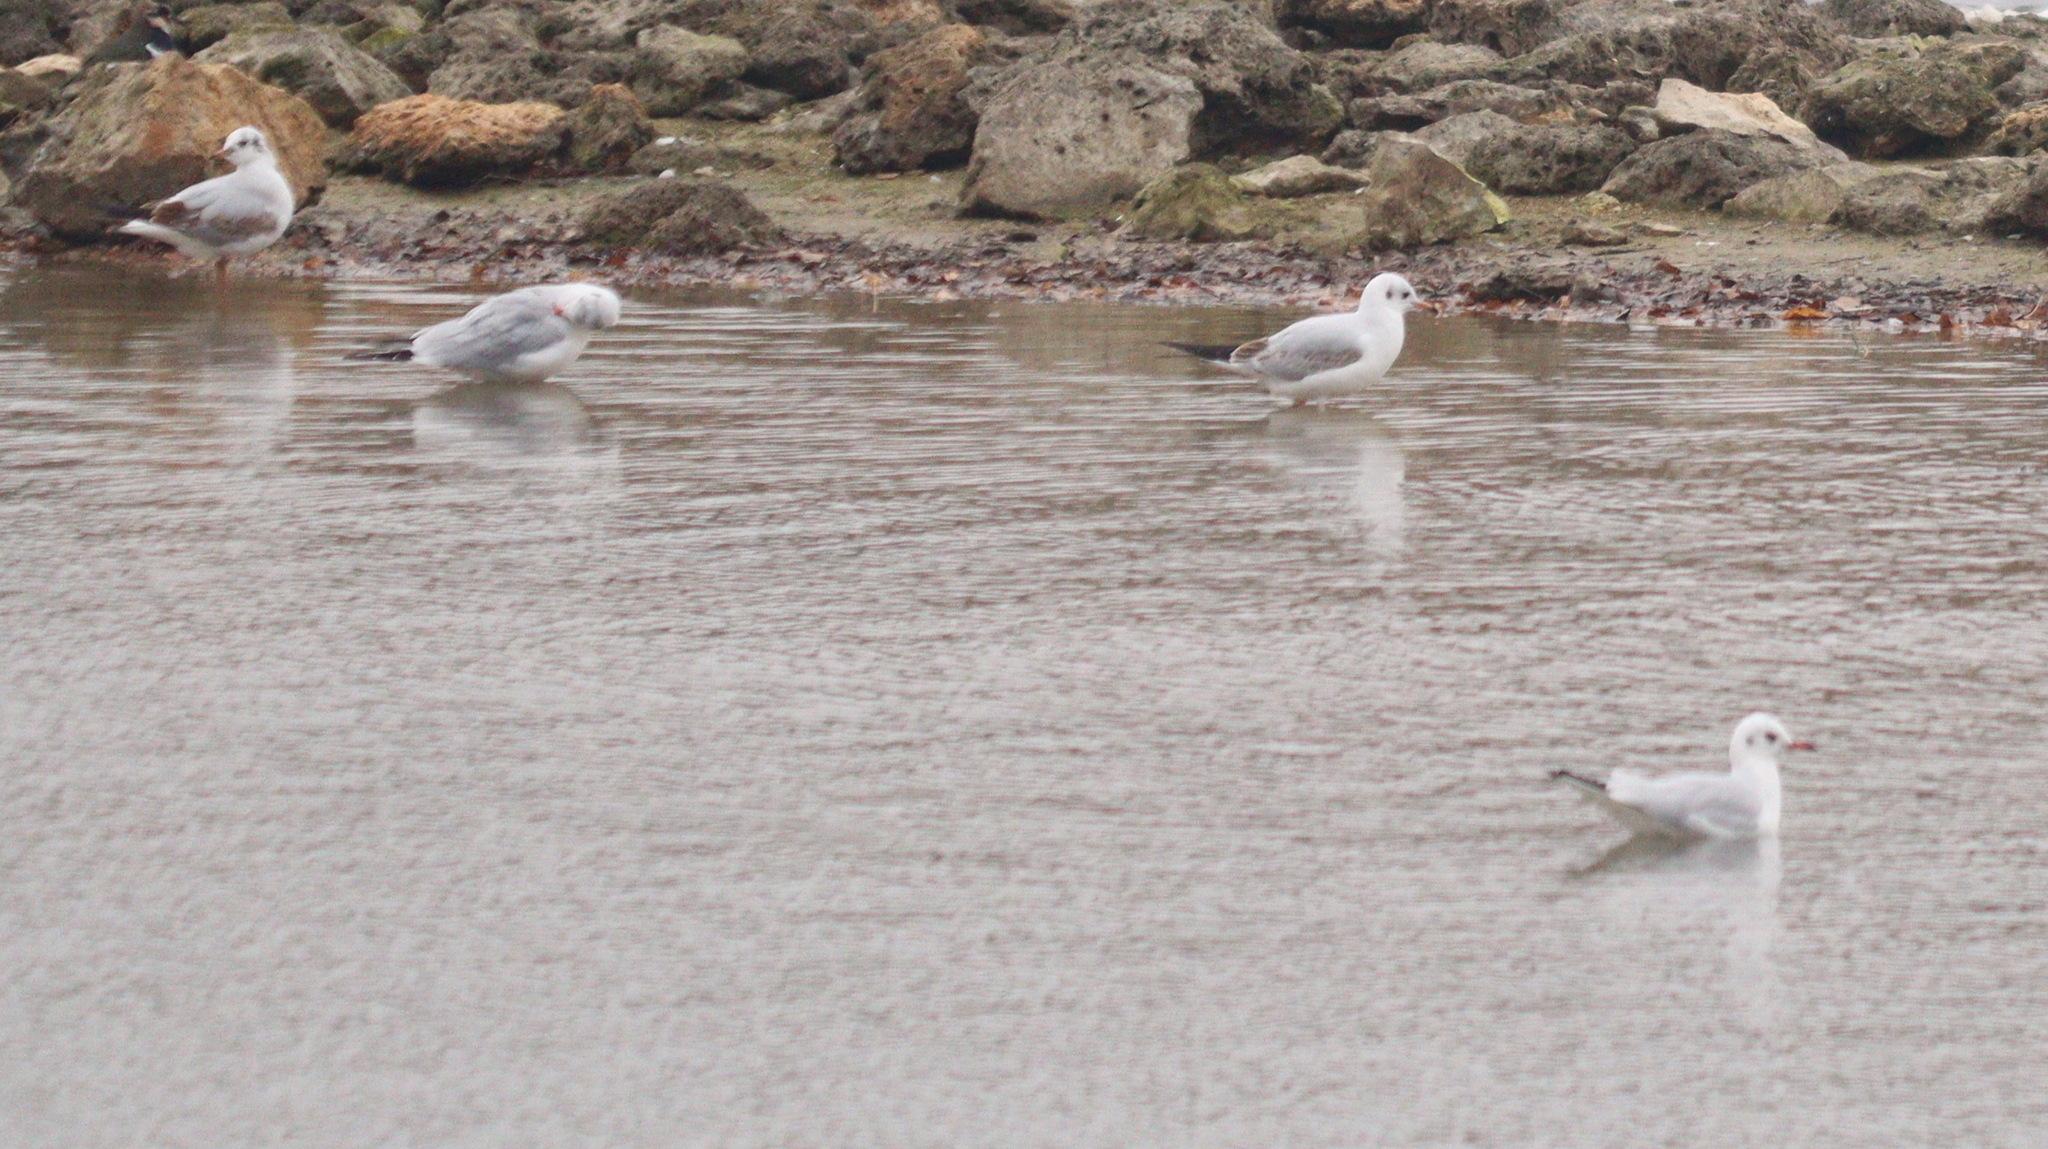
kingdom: Animalia
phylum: Chordata
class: Aves
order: Charadriiformes
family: Laridae
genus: Chroicocephalus
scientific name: Chroicocephalus ridibundus
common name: Black-headed gull
